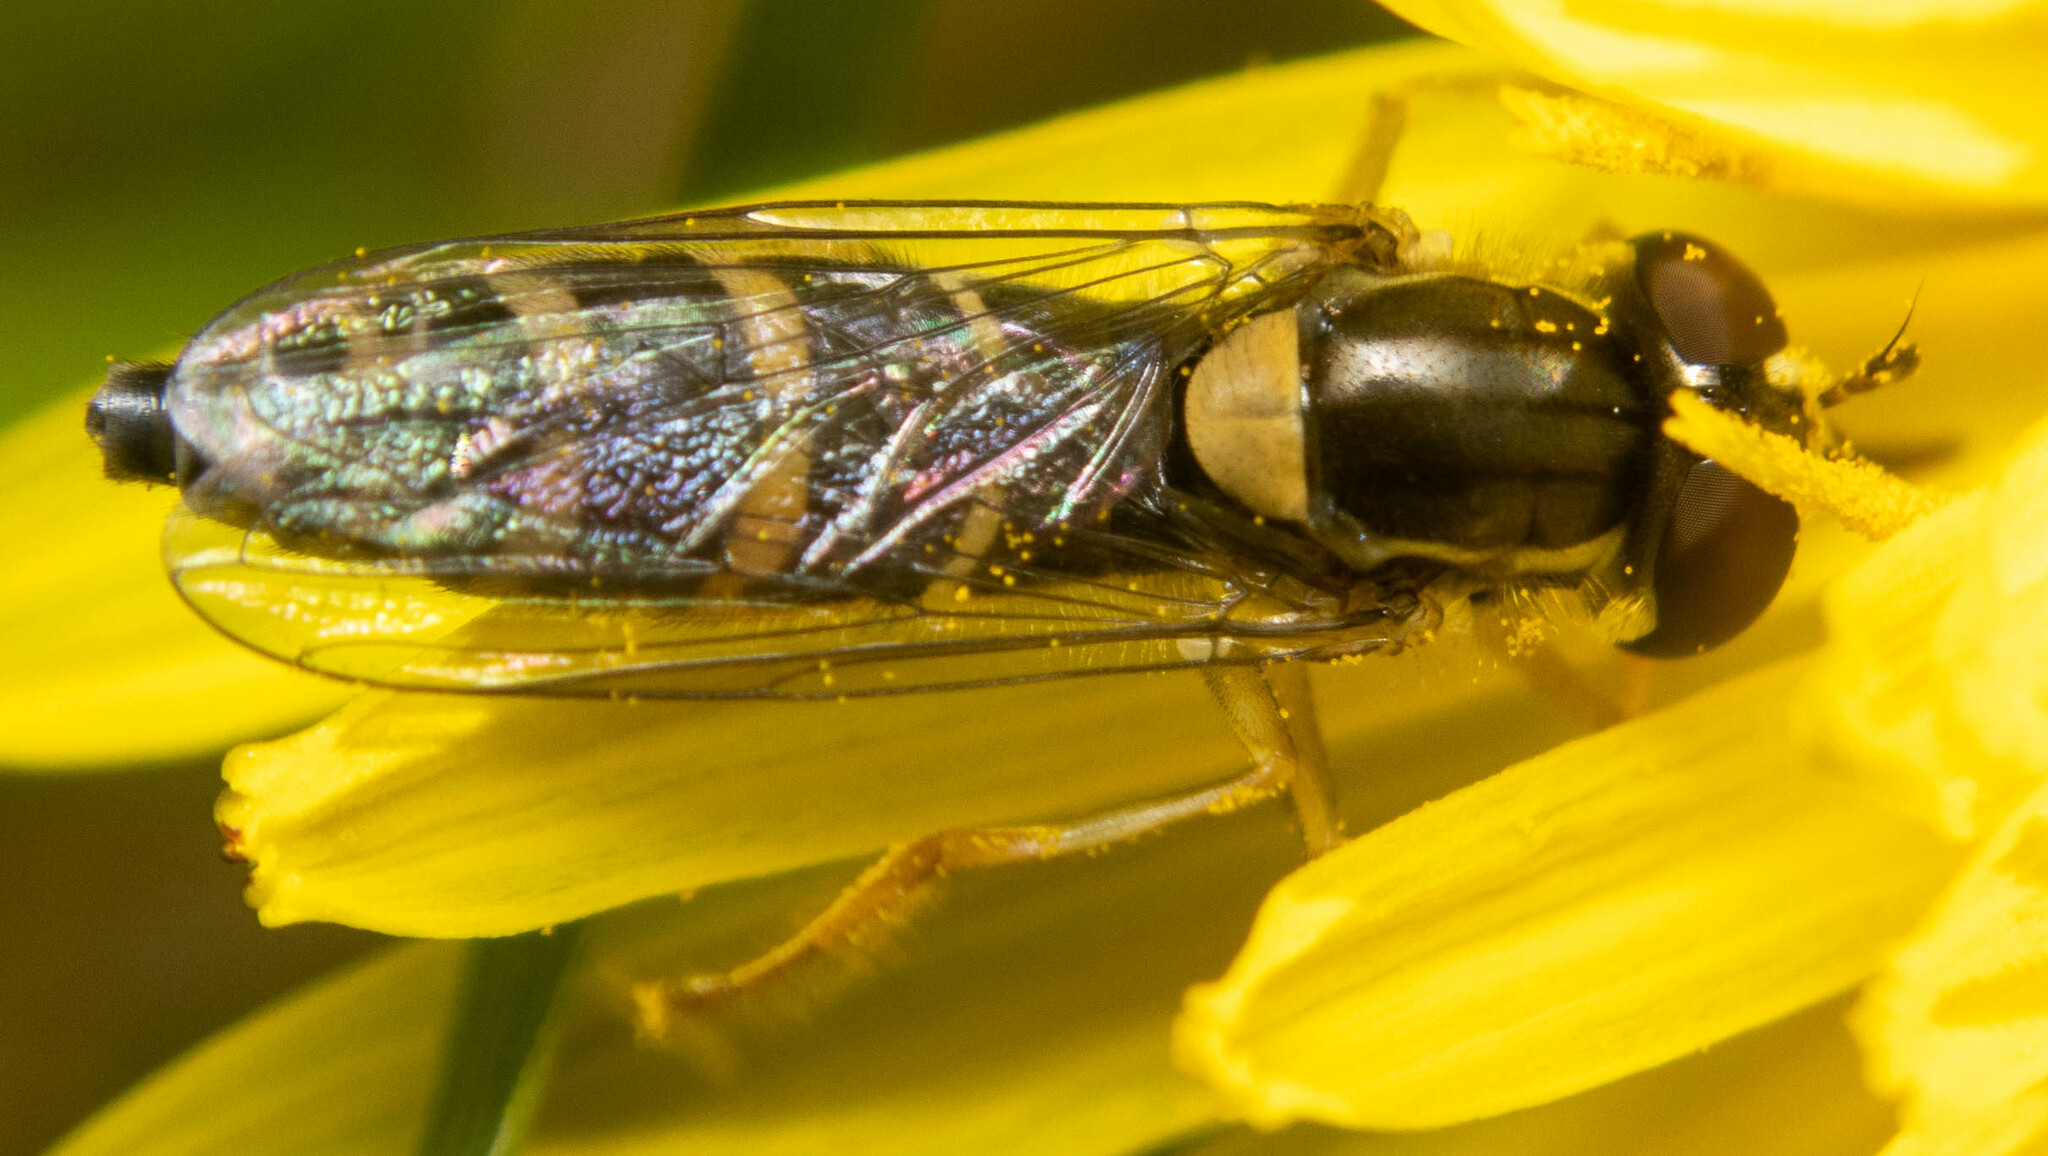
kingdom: Animalia
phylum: Arthropoda
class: Insecta
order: Diptera
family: Syrphidae
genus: Sphaerophoria
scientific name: Sphaerophoria
